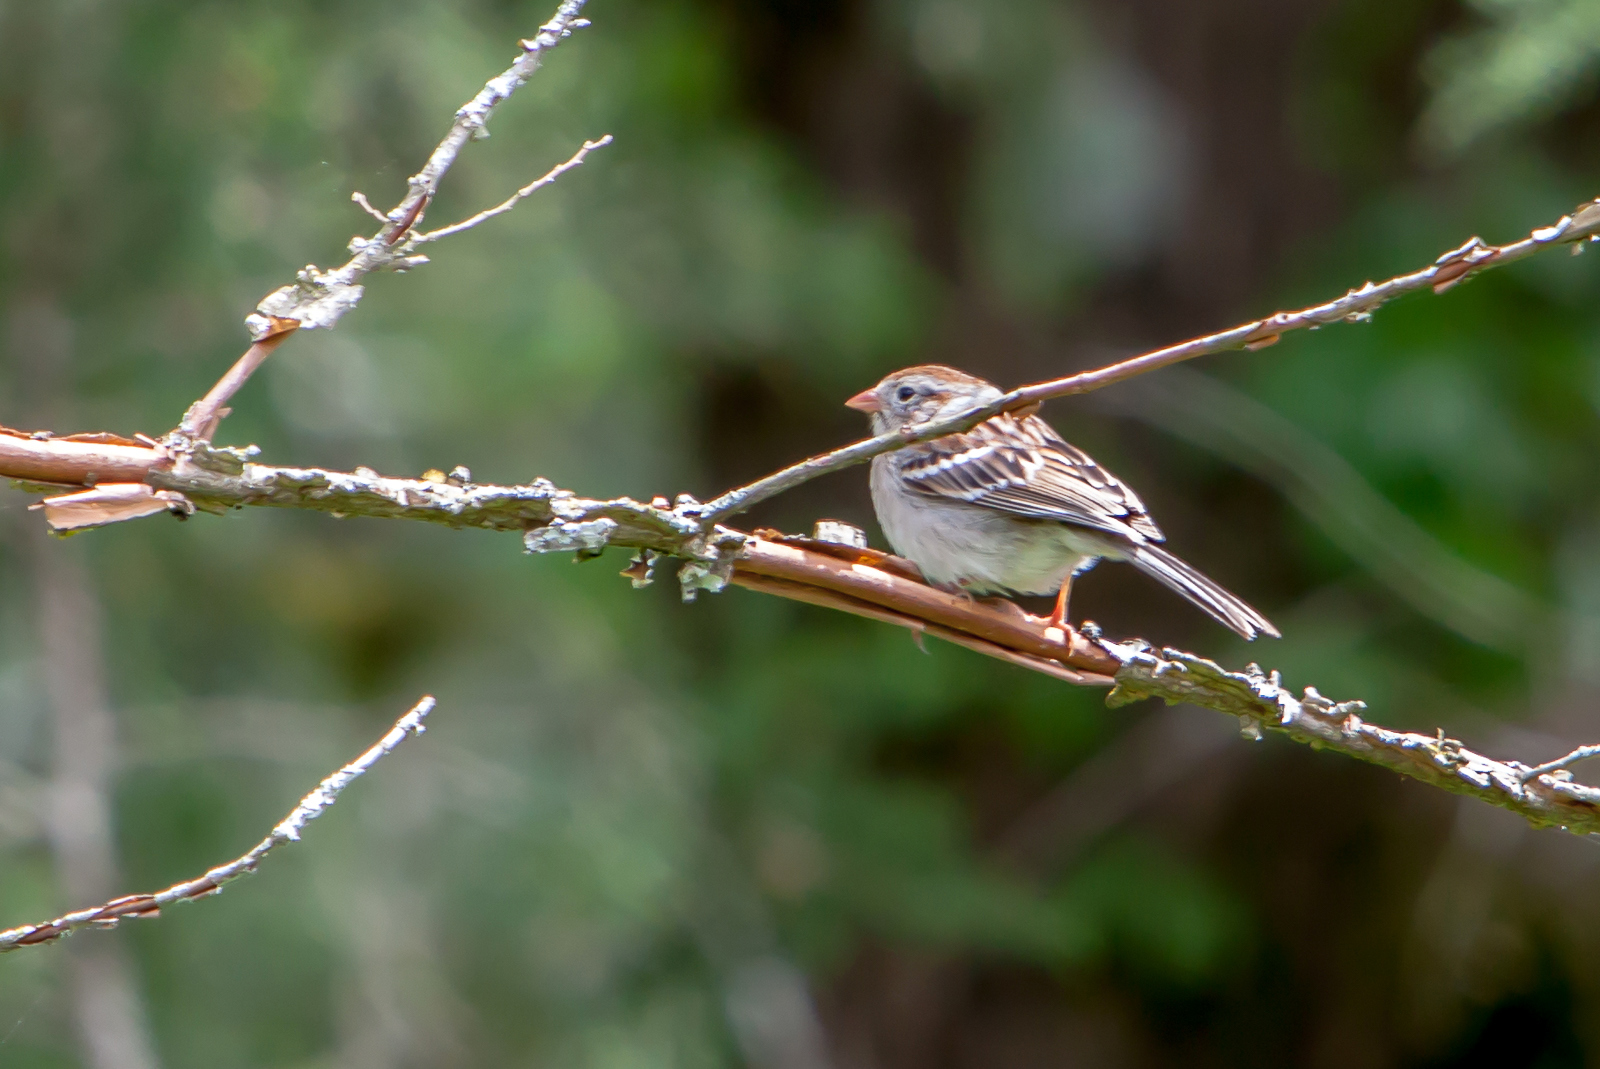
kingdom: Animalia
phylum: Chordata
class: Aves
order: Passeriformes
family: Passerellidae
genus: Spizella
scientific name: Spizella pusilla
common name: Field sparrow
